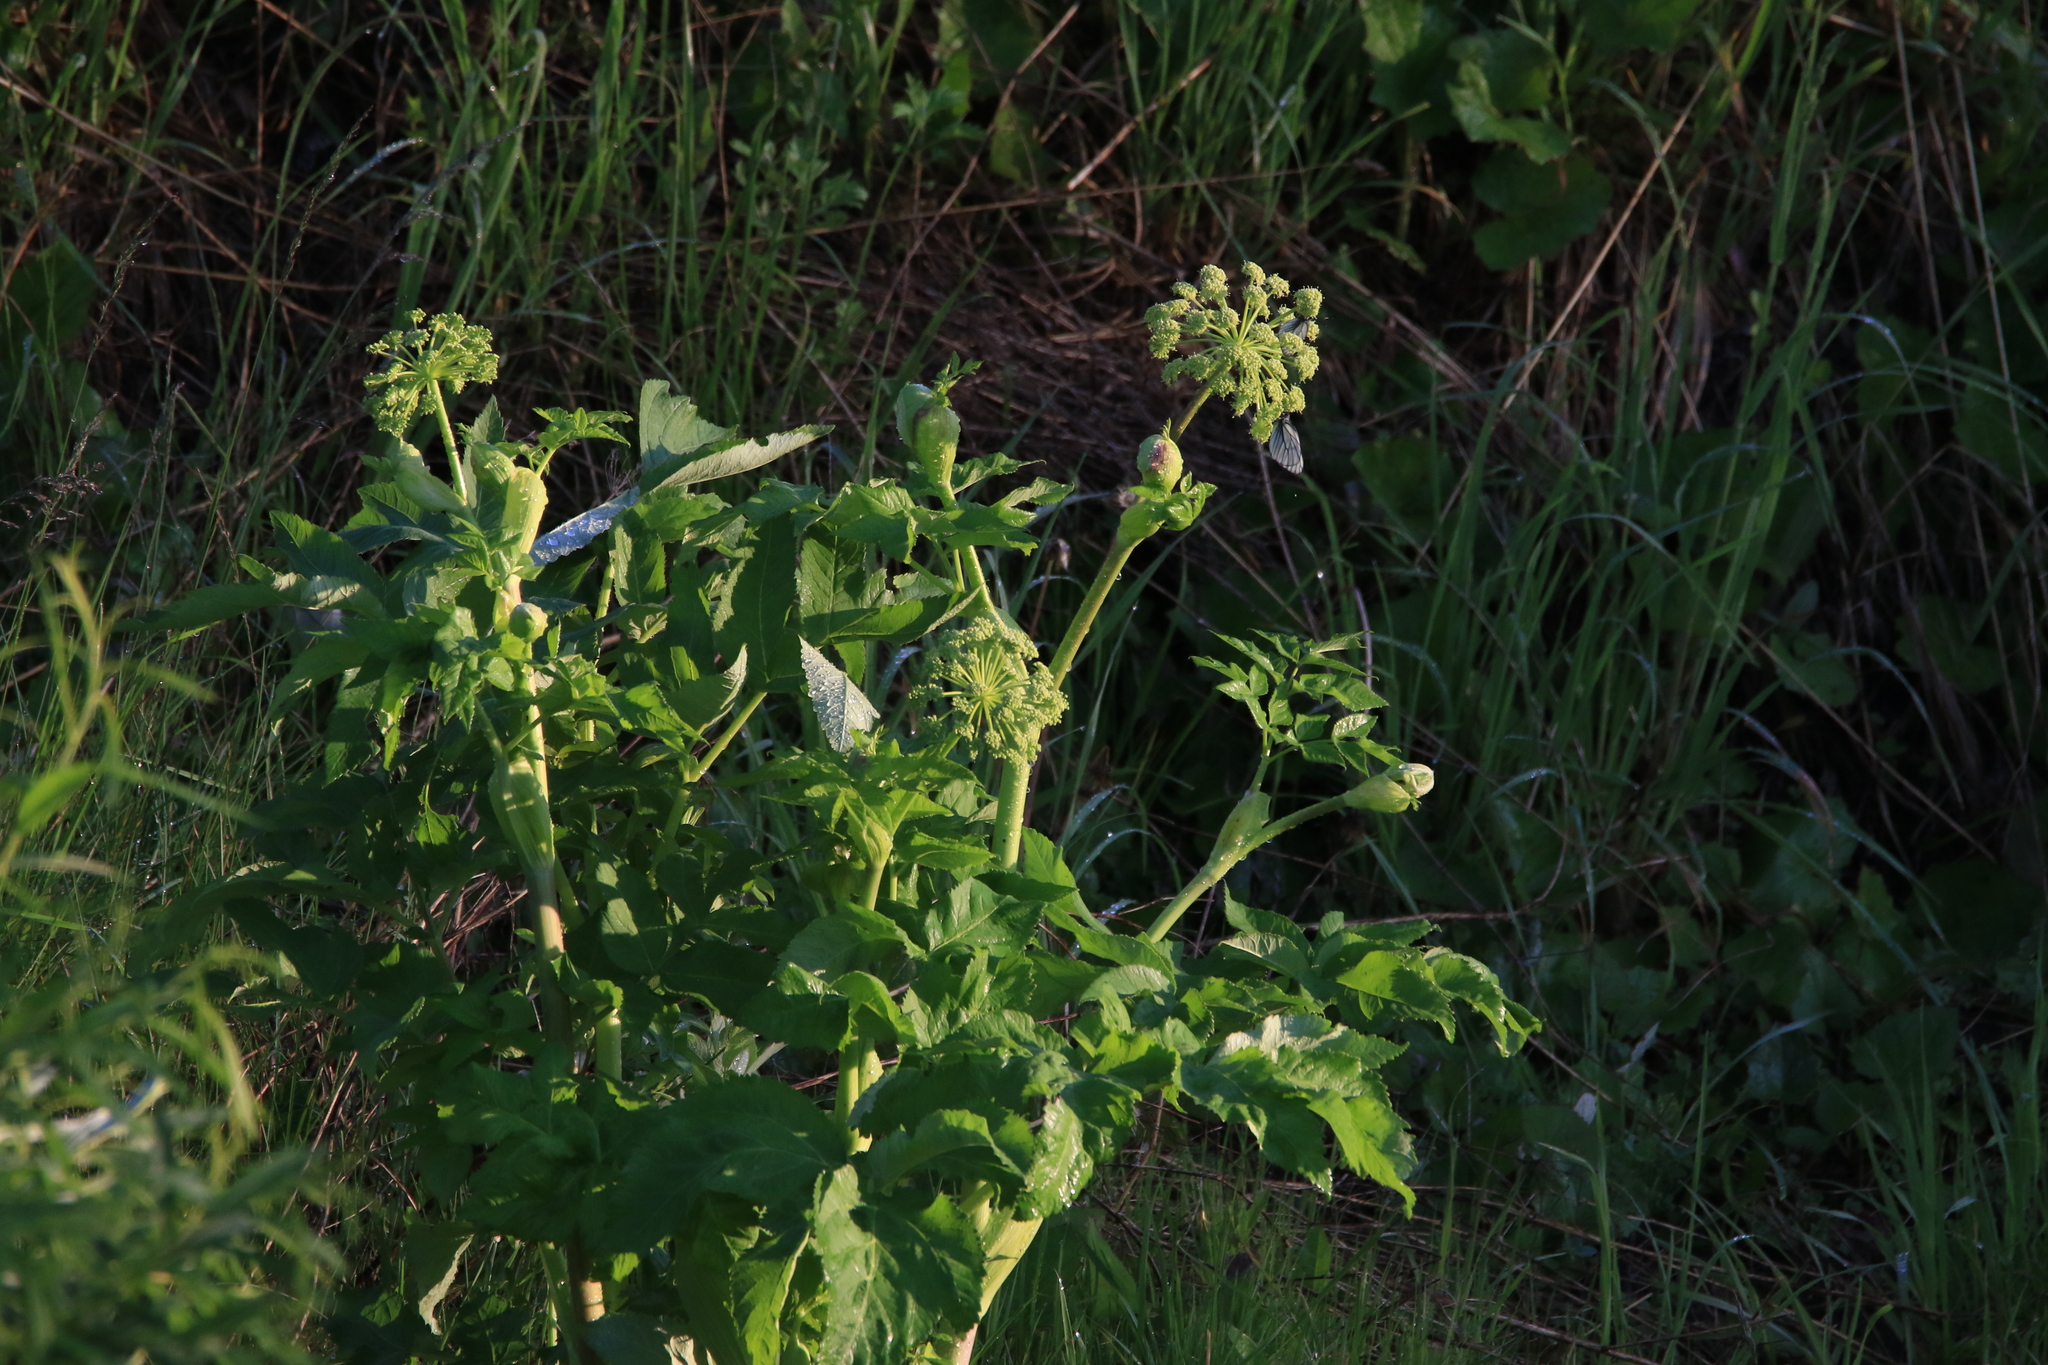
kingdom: Plantae
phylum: Tracheophyta
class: Magnoliopsida
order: Apiales
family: Apiaceae
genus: Angelica
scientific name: Angelica decurrens
